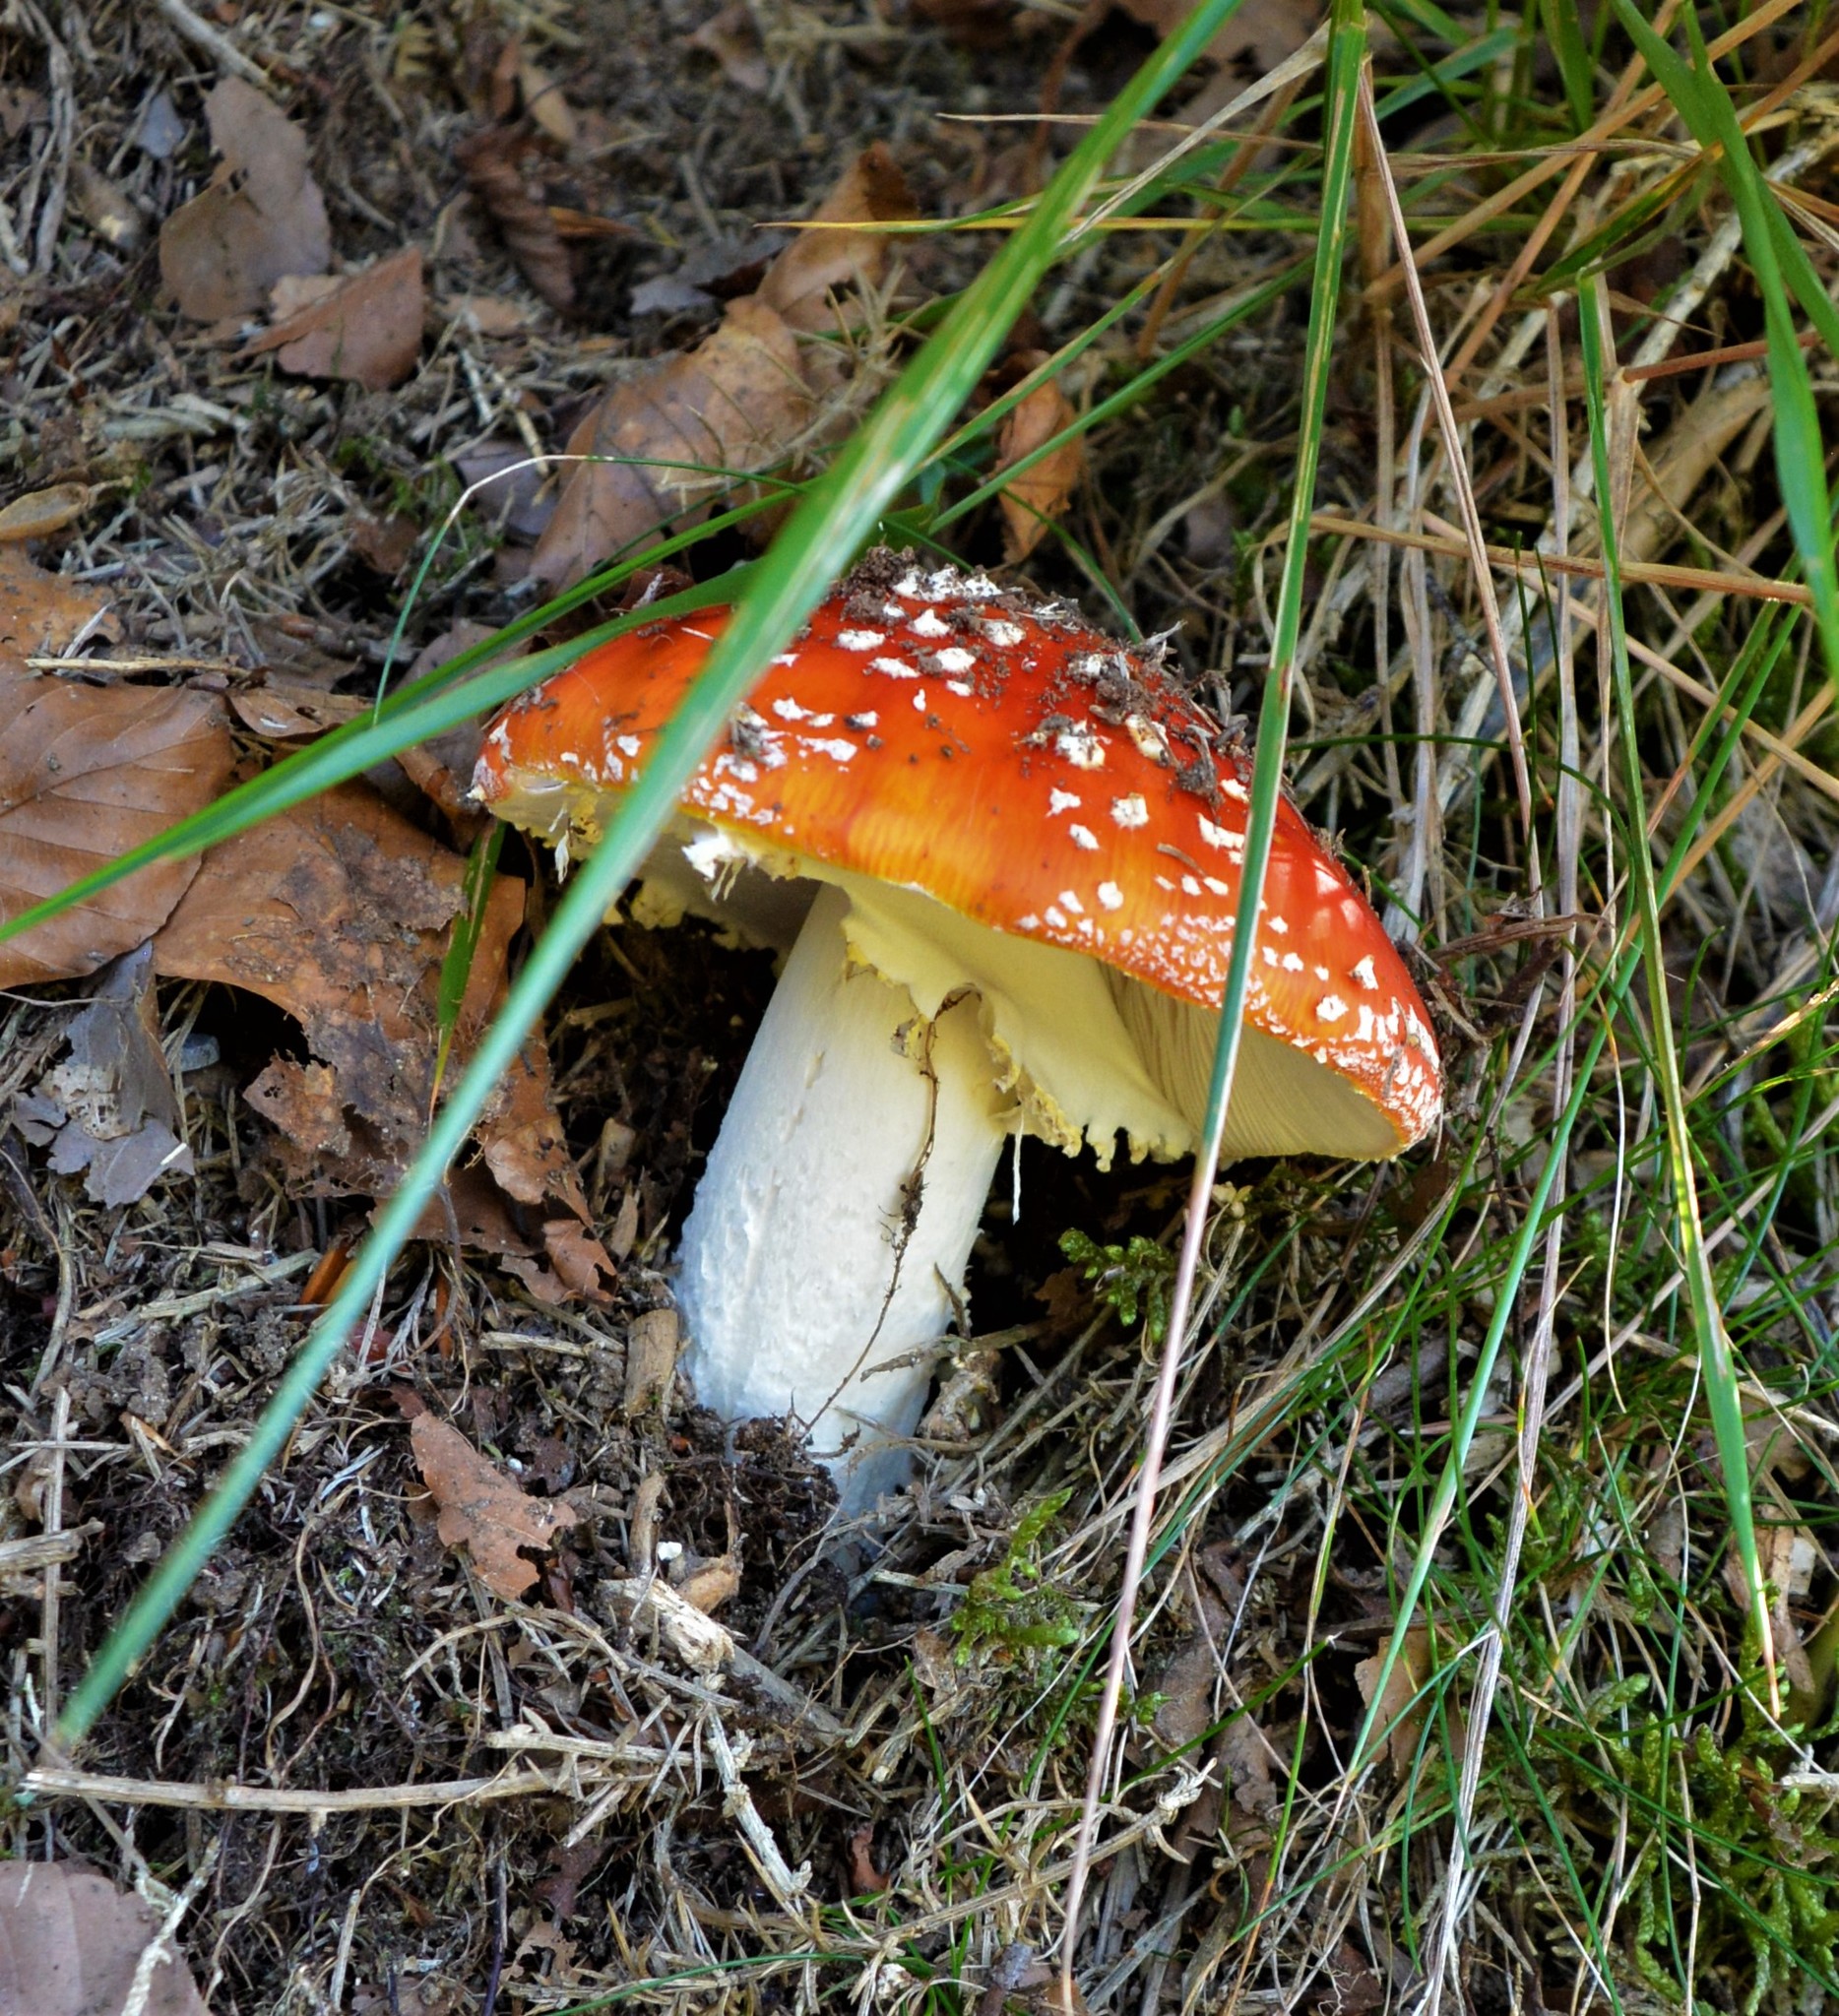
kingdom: Fungi
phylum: Basidiomycota
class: Agaricomycetes
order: Agaricales
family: Amanitaceae
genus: Amanita
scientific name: Amanita muscaria
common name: Fly agaric
